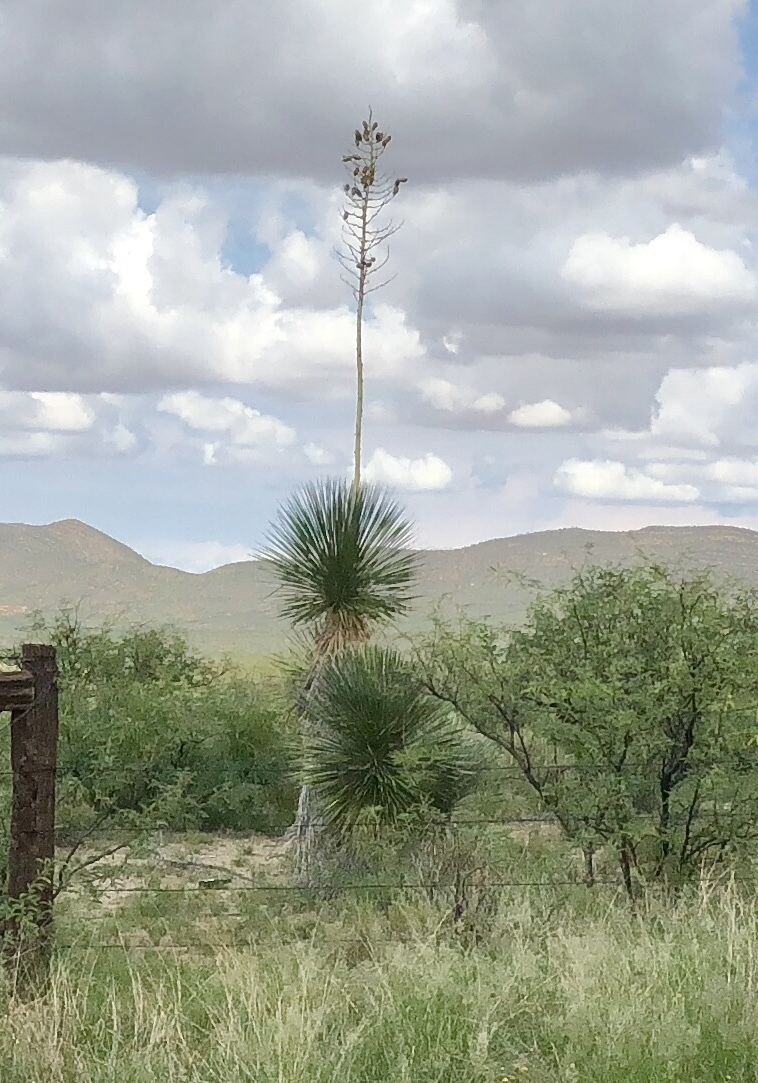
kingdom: Plantae
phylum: Tracheophyta
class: Liliopsida
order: Asparagales
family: Asparagaceae
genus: Yucca
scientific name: Yucca elata
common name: Palmella
